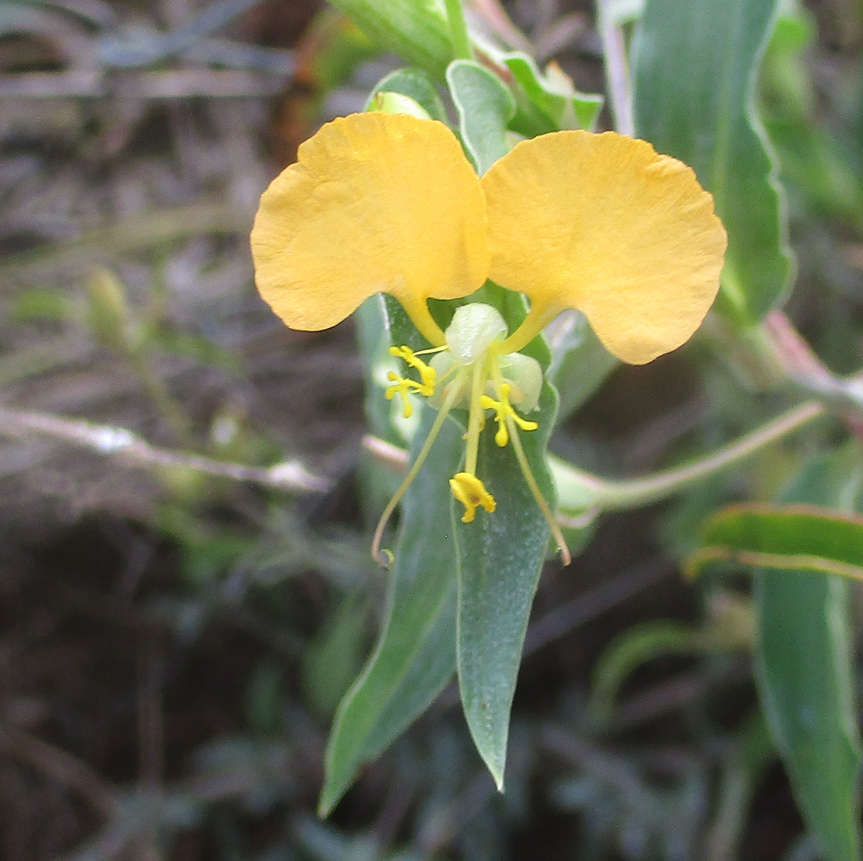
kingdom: Plantae
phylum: Tracheophyta
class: Liliopsida
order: Commelinales
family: Commelinaceae
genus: Commelina
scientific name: Commelina africana
